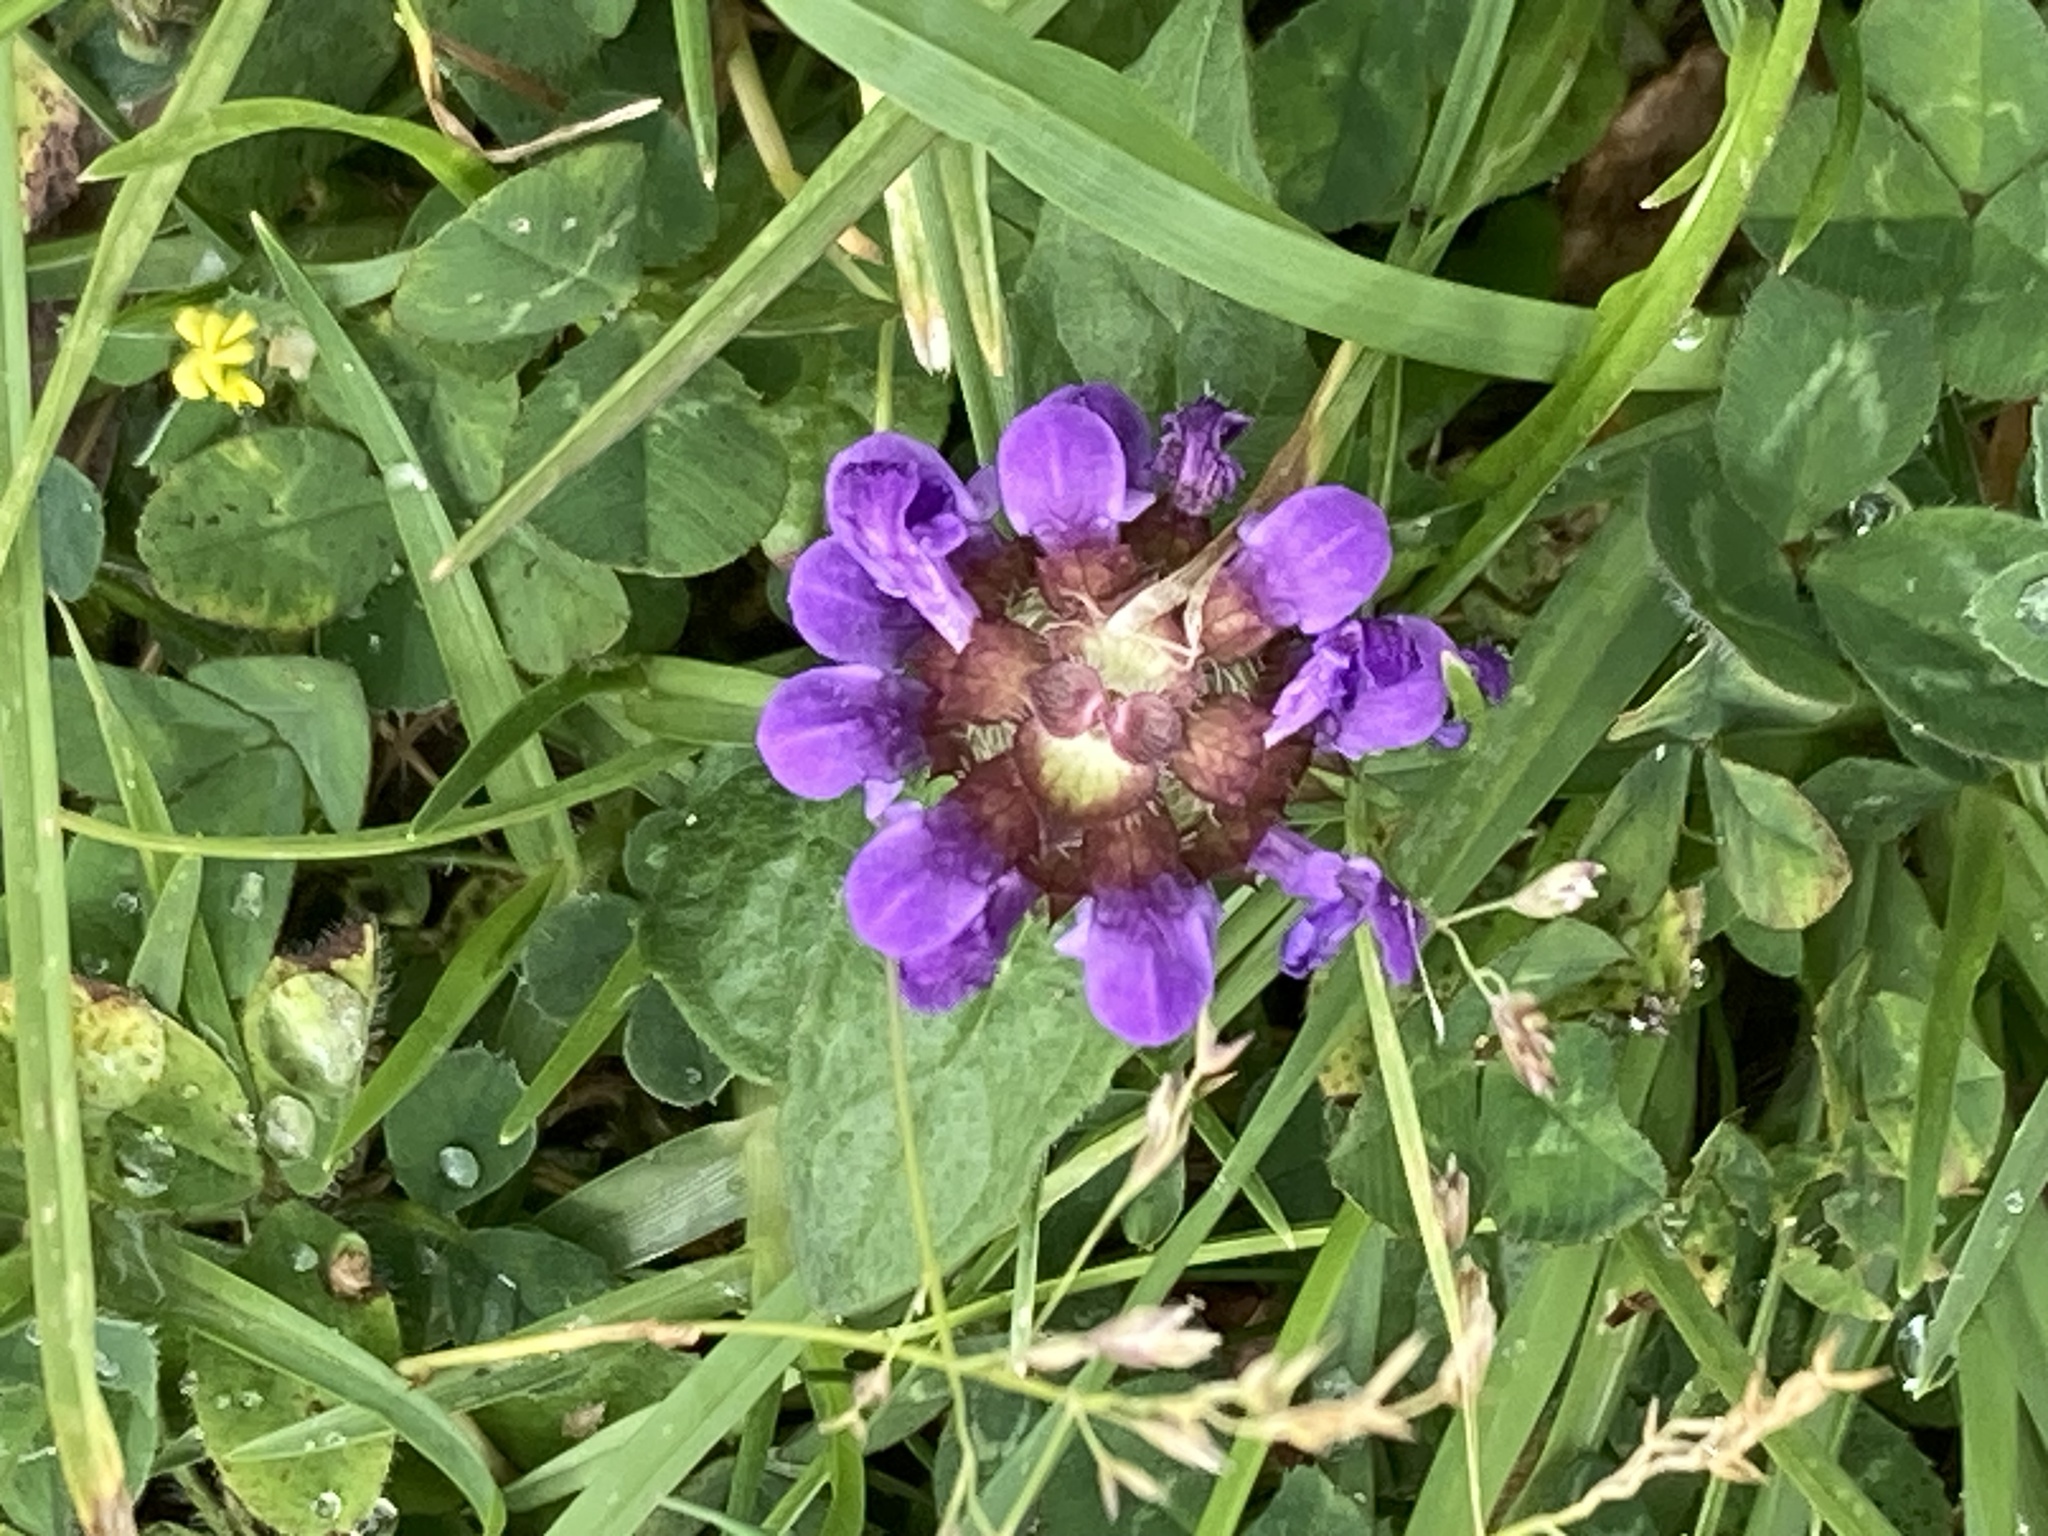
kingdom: Plantae
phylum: Tracheophyta
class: Magnoliopsida
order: Lamiales
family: Lamiaceae
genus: Prunella
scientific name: Prunella vulgaris
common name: Heal-all
